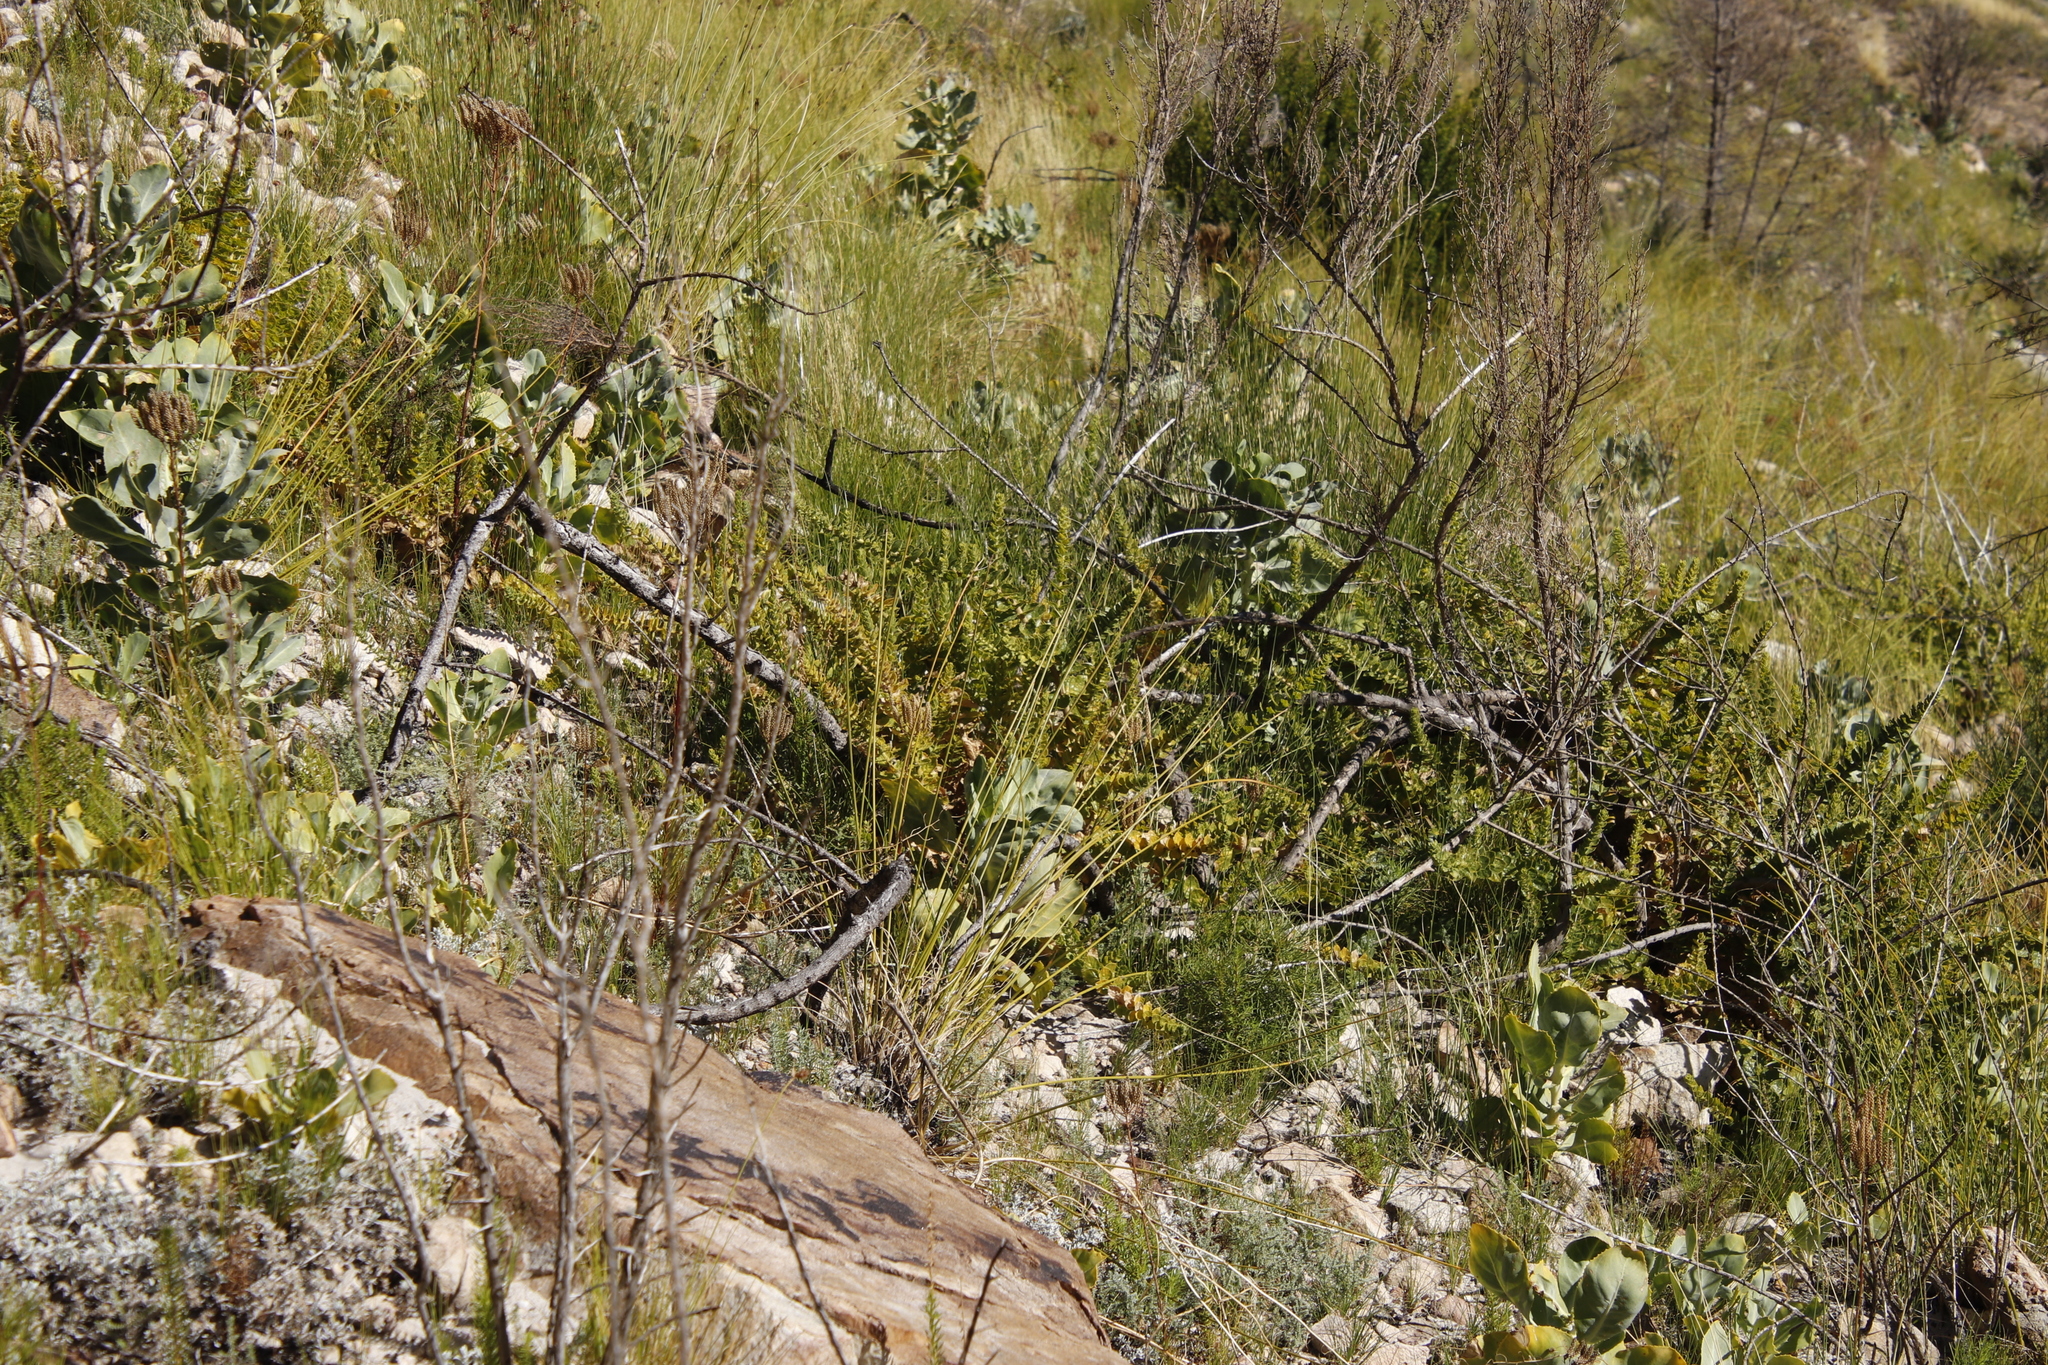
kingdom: Plantae
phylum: Tracheophyta
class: Magnoliopsida
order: Lamiales
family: Scrophulariaceae
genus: Oftia
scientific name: Oftia africana
